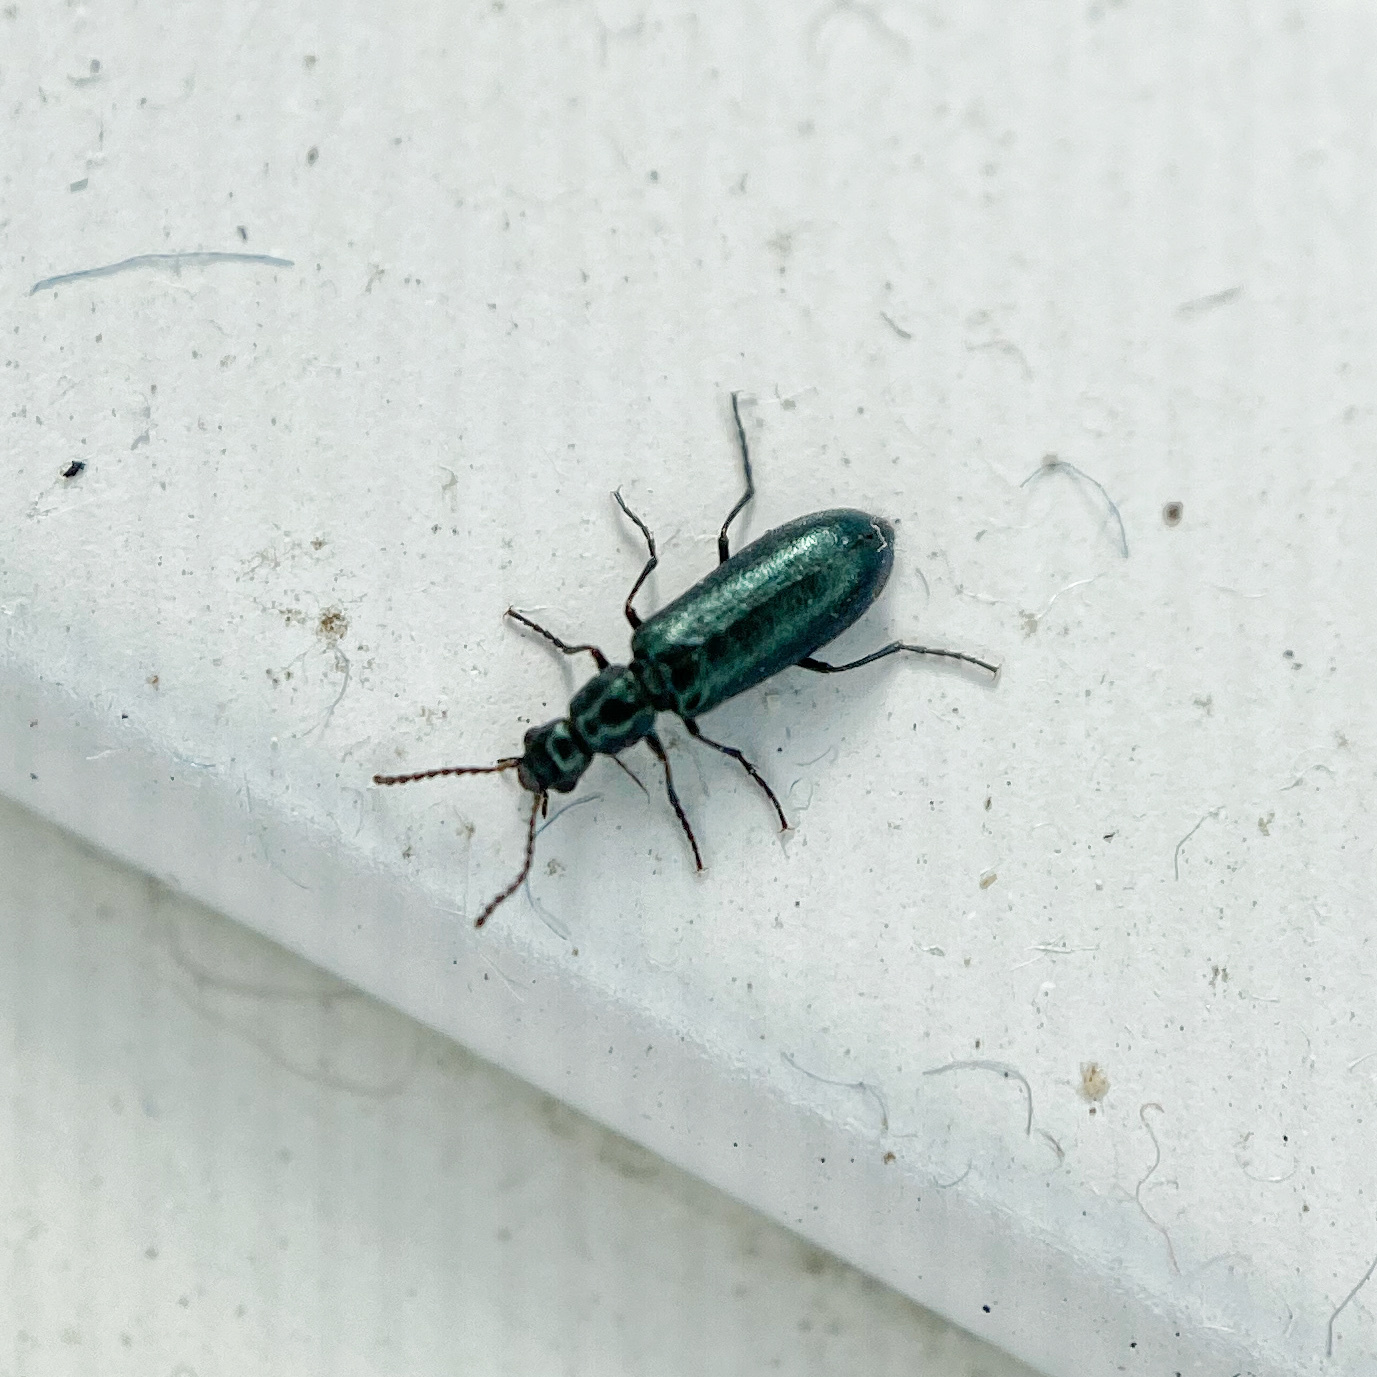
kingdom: Animalia
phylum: Arthropoda
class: Insecta
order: Coleoptera
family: Melyridae
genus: Dasytes
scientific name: Dasytes
